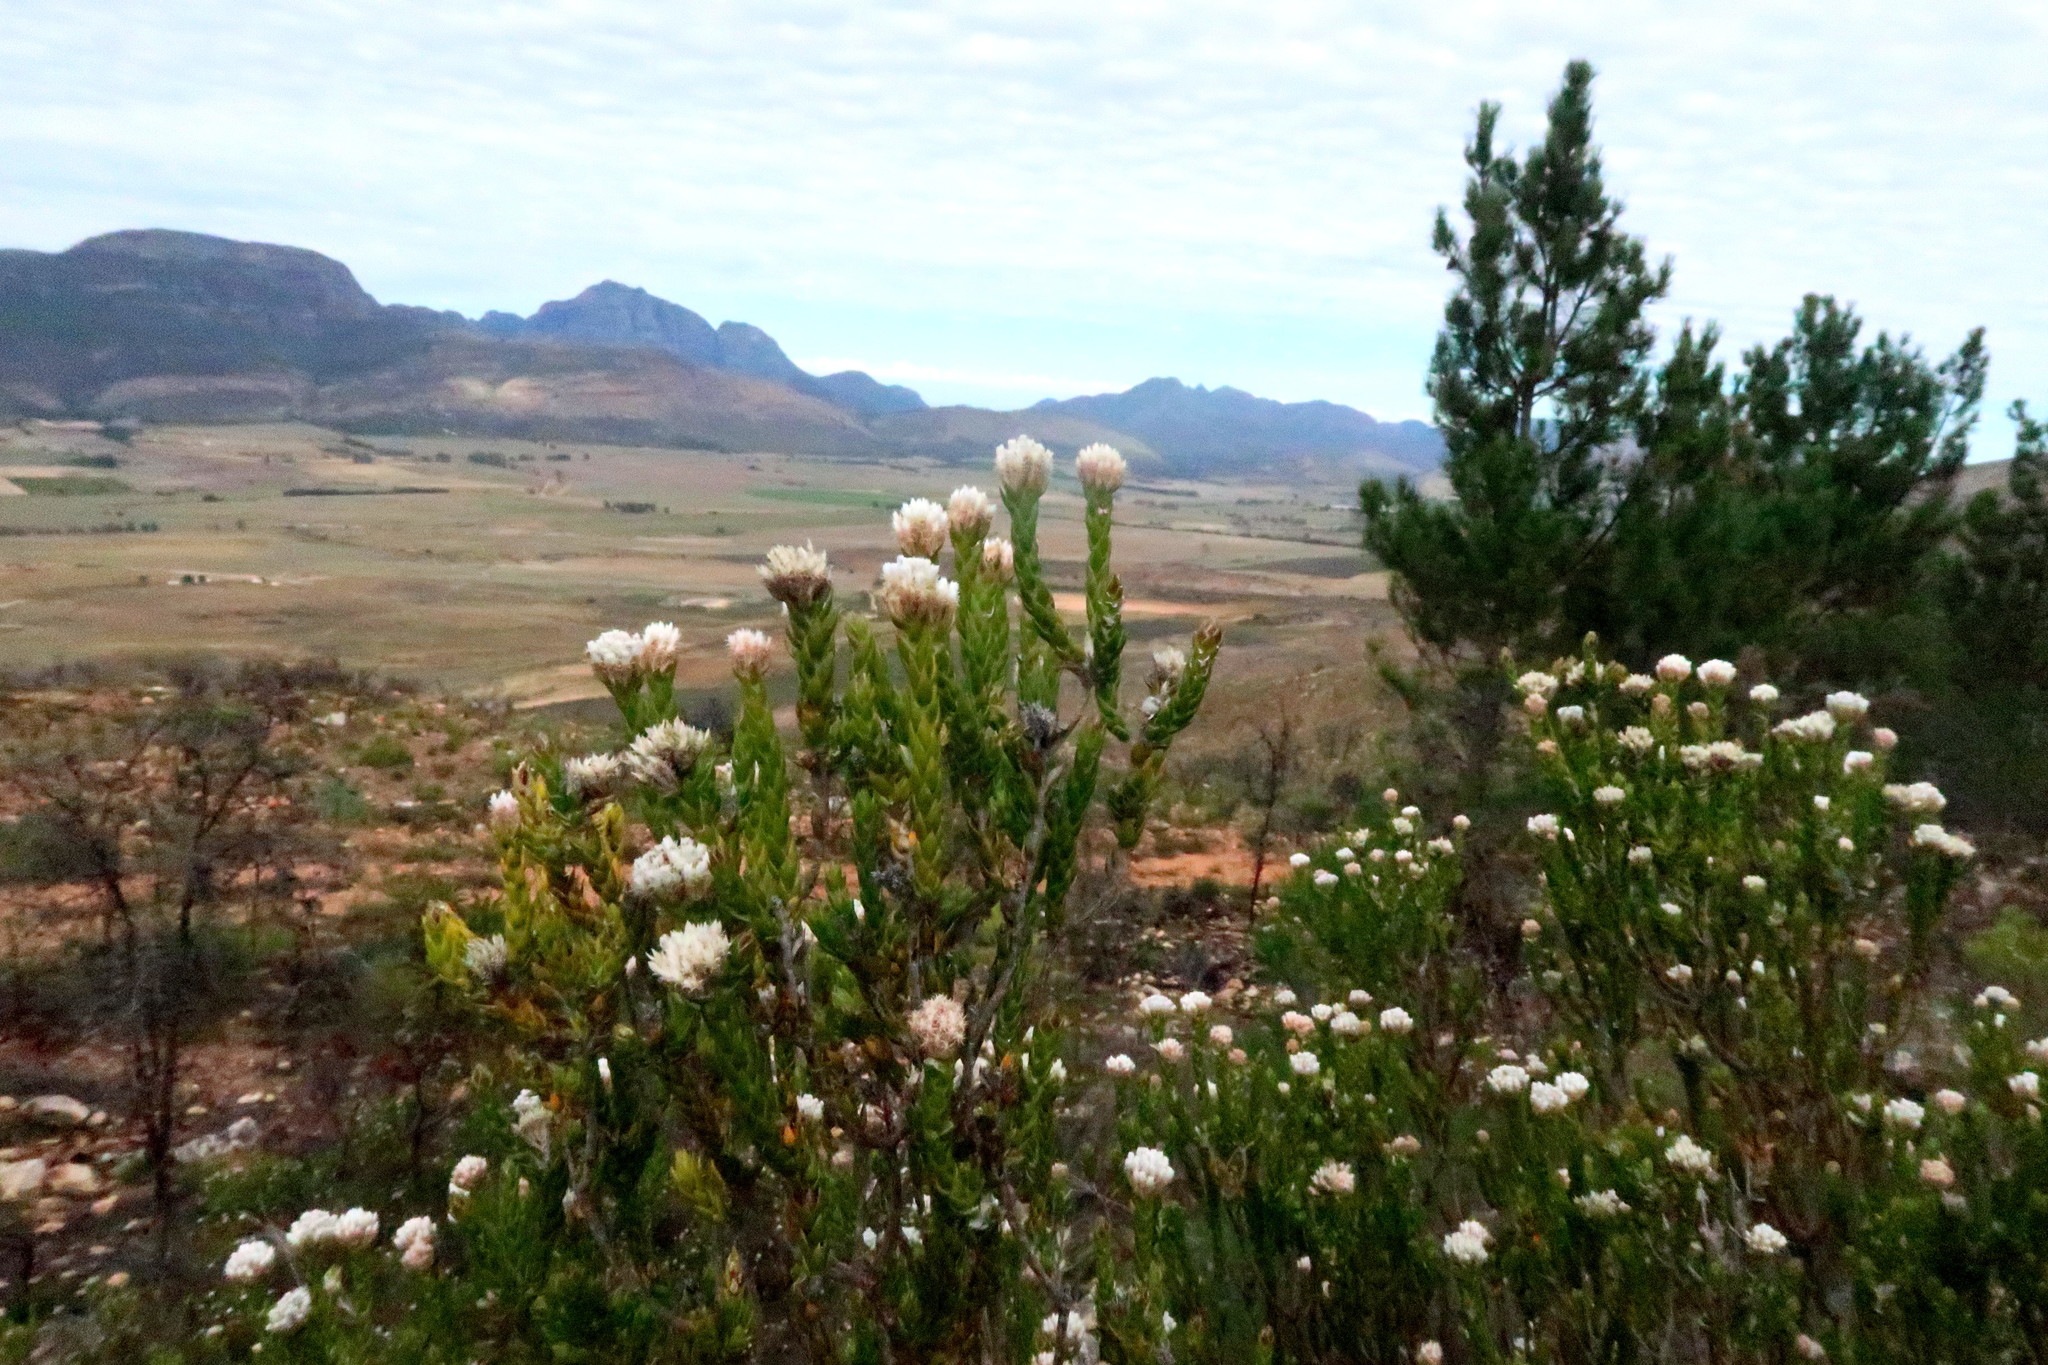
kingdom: Plantae
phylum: Tracheophyta
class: Magnoliopsida
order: Asterales
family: Asteraceae
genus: Metalasia
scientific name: Metalasia pulcherrima
